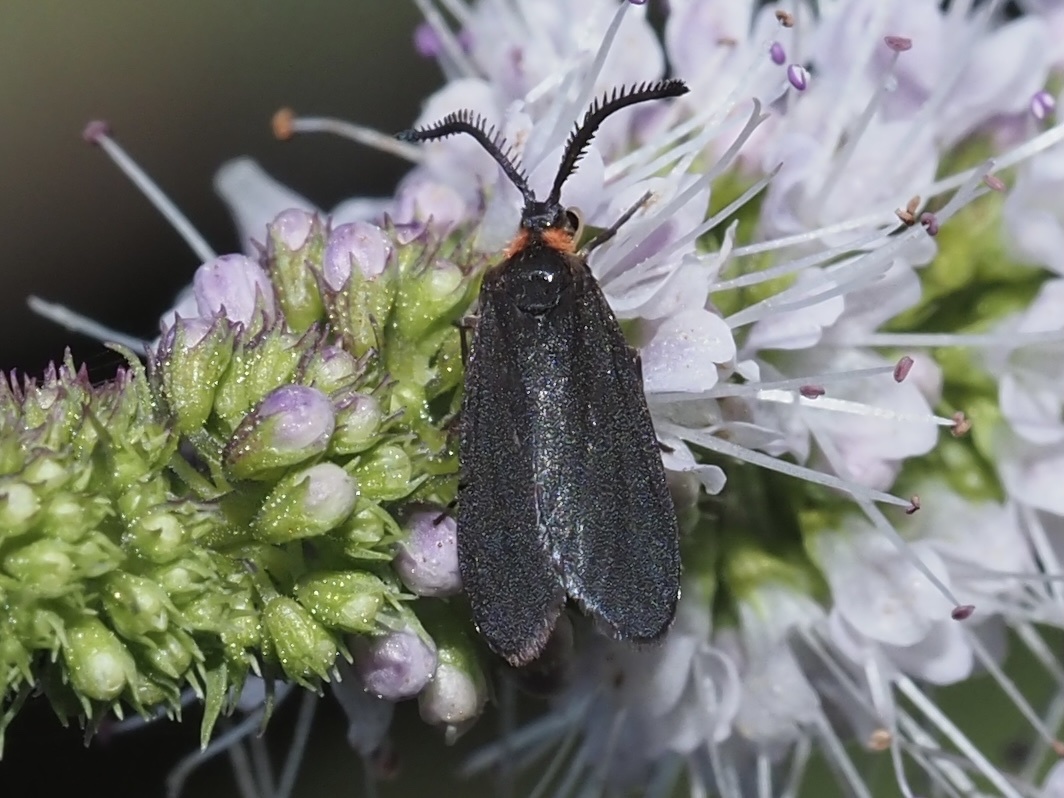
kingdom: Animalia
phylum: Arthropoda
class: Insecta
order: Lepidoptera
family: Zygaenidae
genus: Acoloithus
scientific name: Acoloithus falsarius
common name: Clemens' false skeletonizer
